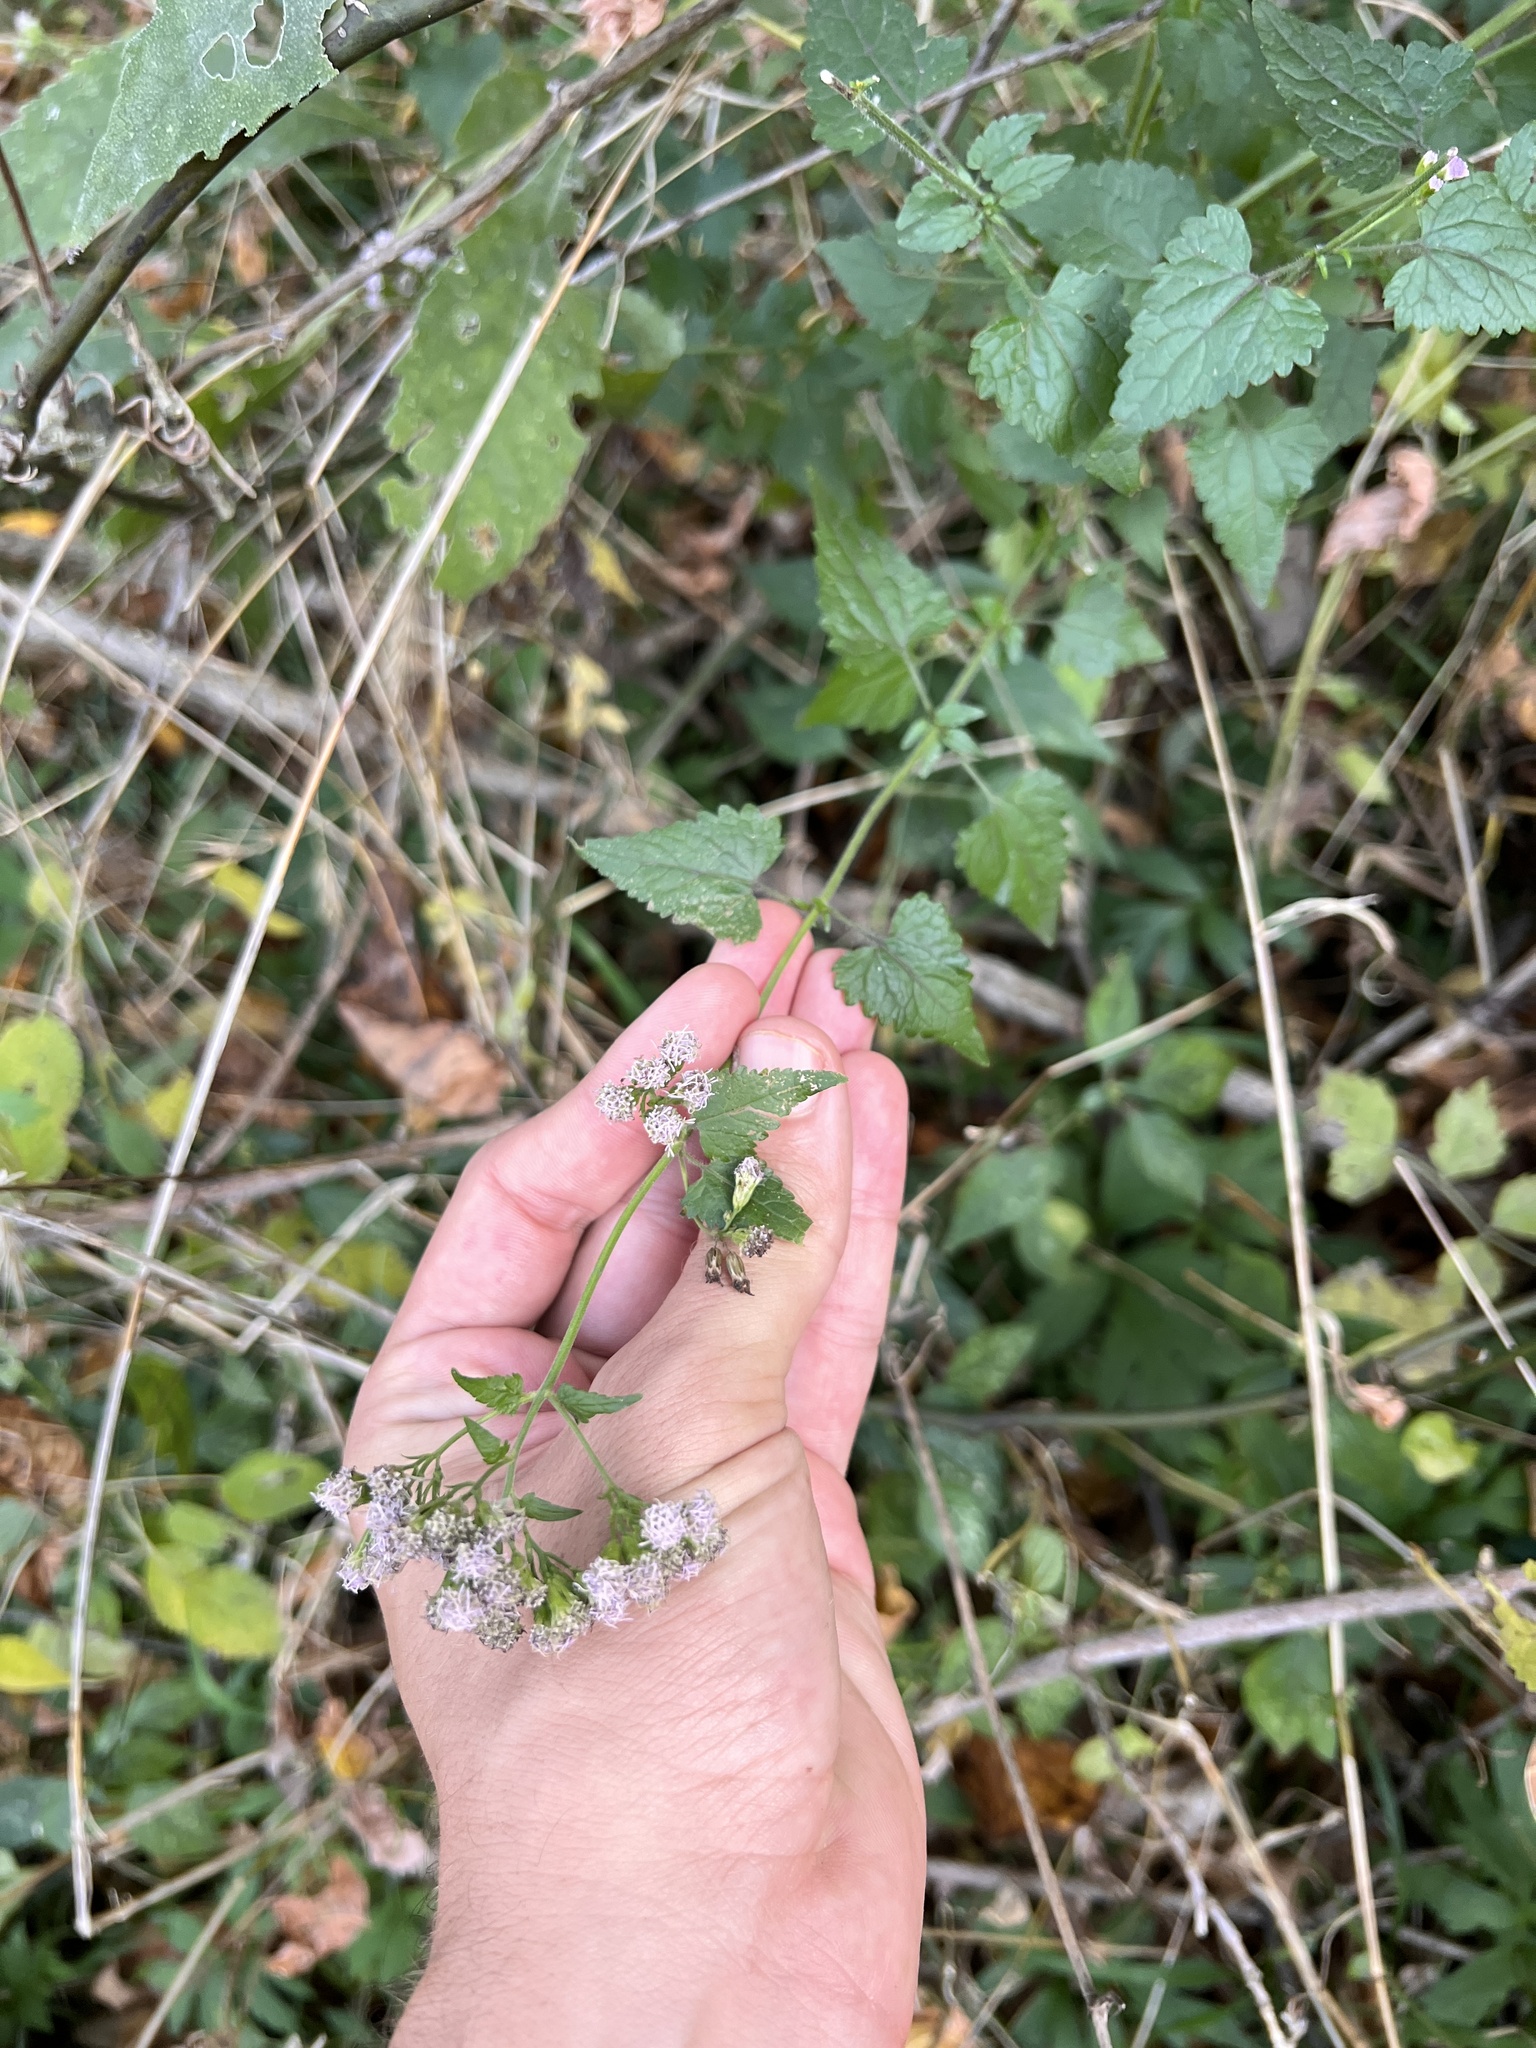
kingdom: Plantae
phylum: Tracheophyta
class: Magnoliopsida
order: Asterales
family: Asteraceae
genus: Fleischmannia
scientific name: Fleischmannia incarnata
